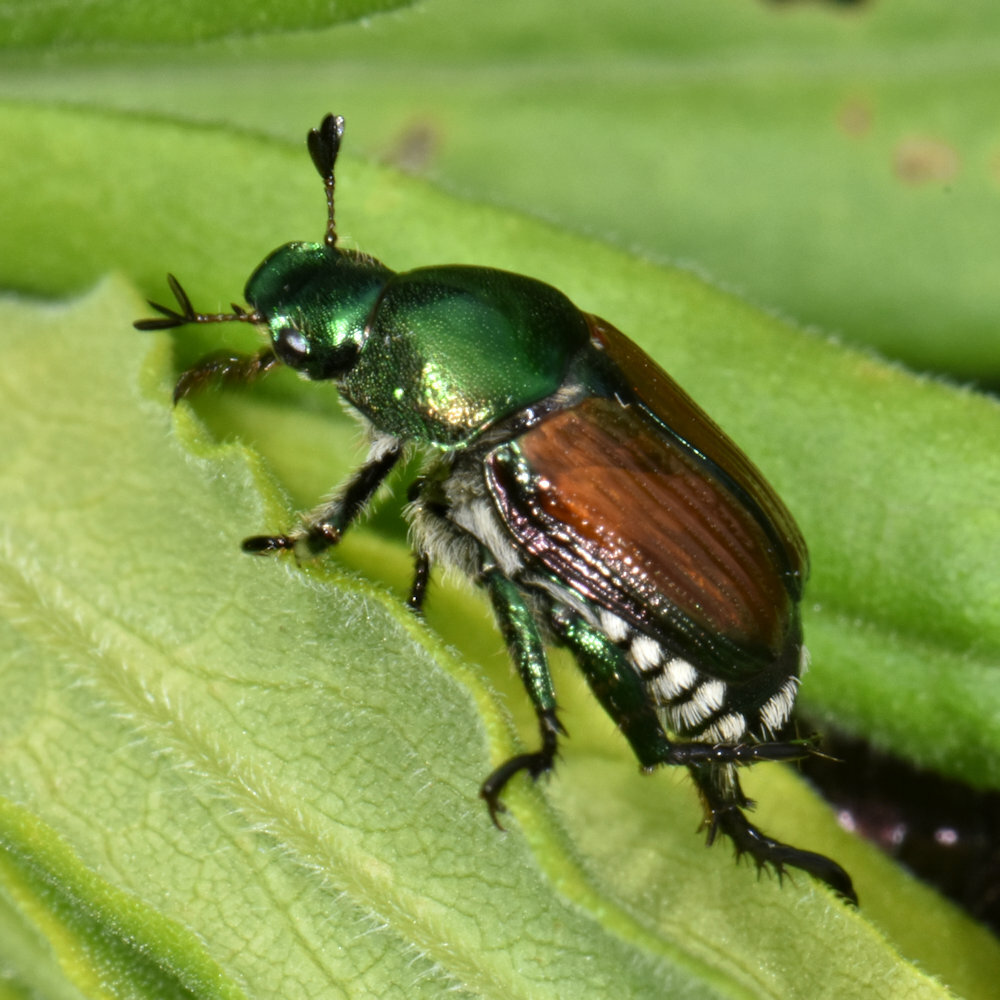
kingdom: Animalia
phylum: Arthropoda
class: Insecta
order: Coleoptera
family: Scarabaeidae
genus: Popillia
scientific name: Popillia japonica
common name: Japanese beetle
